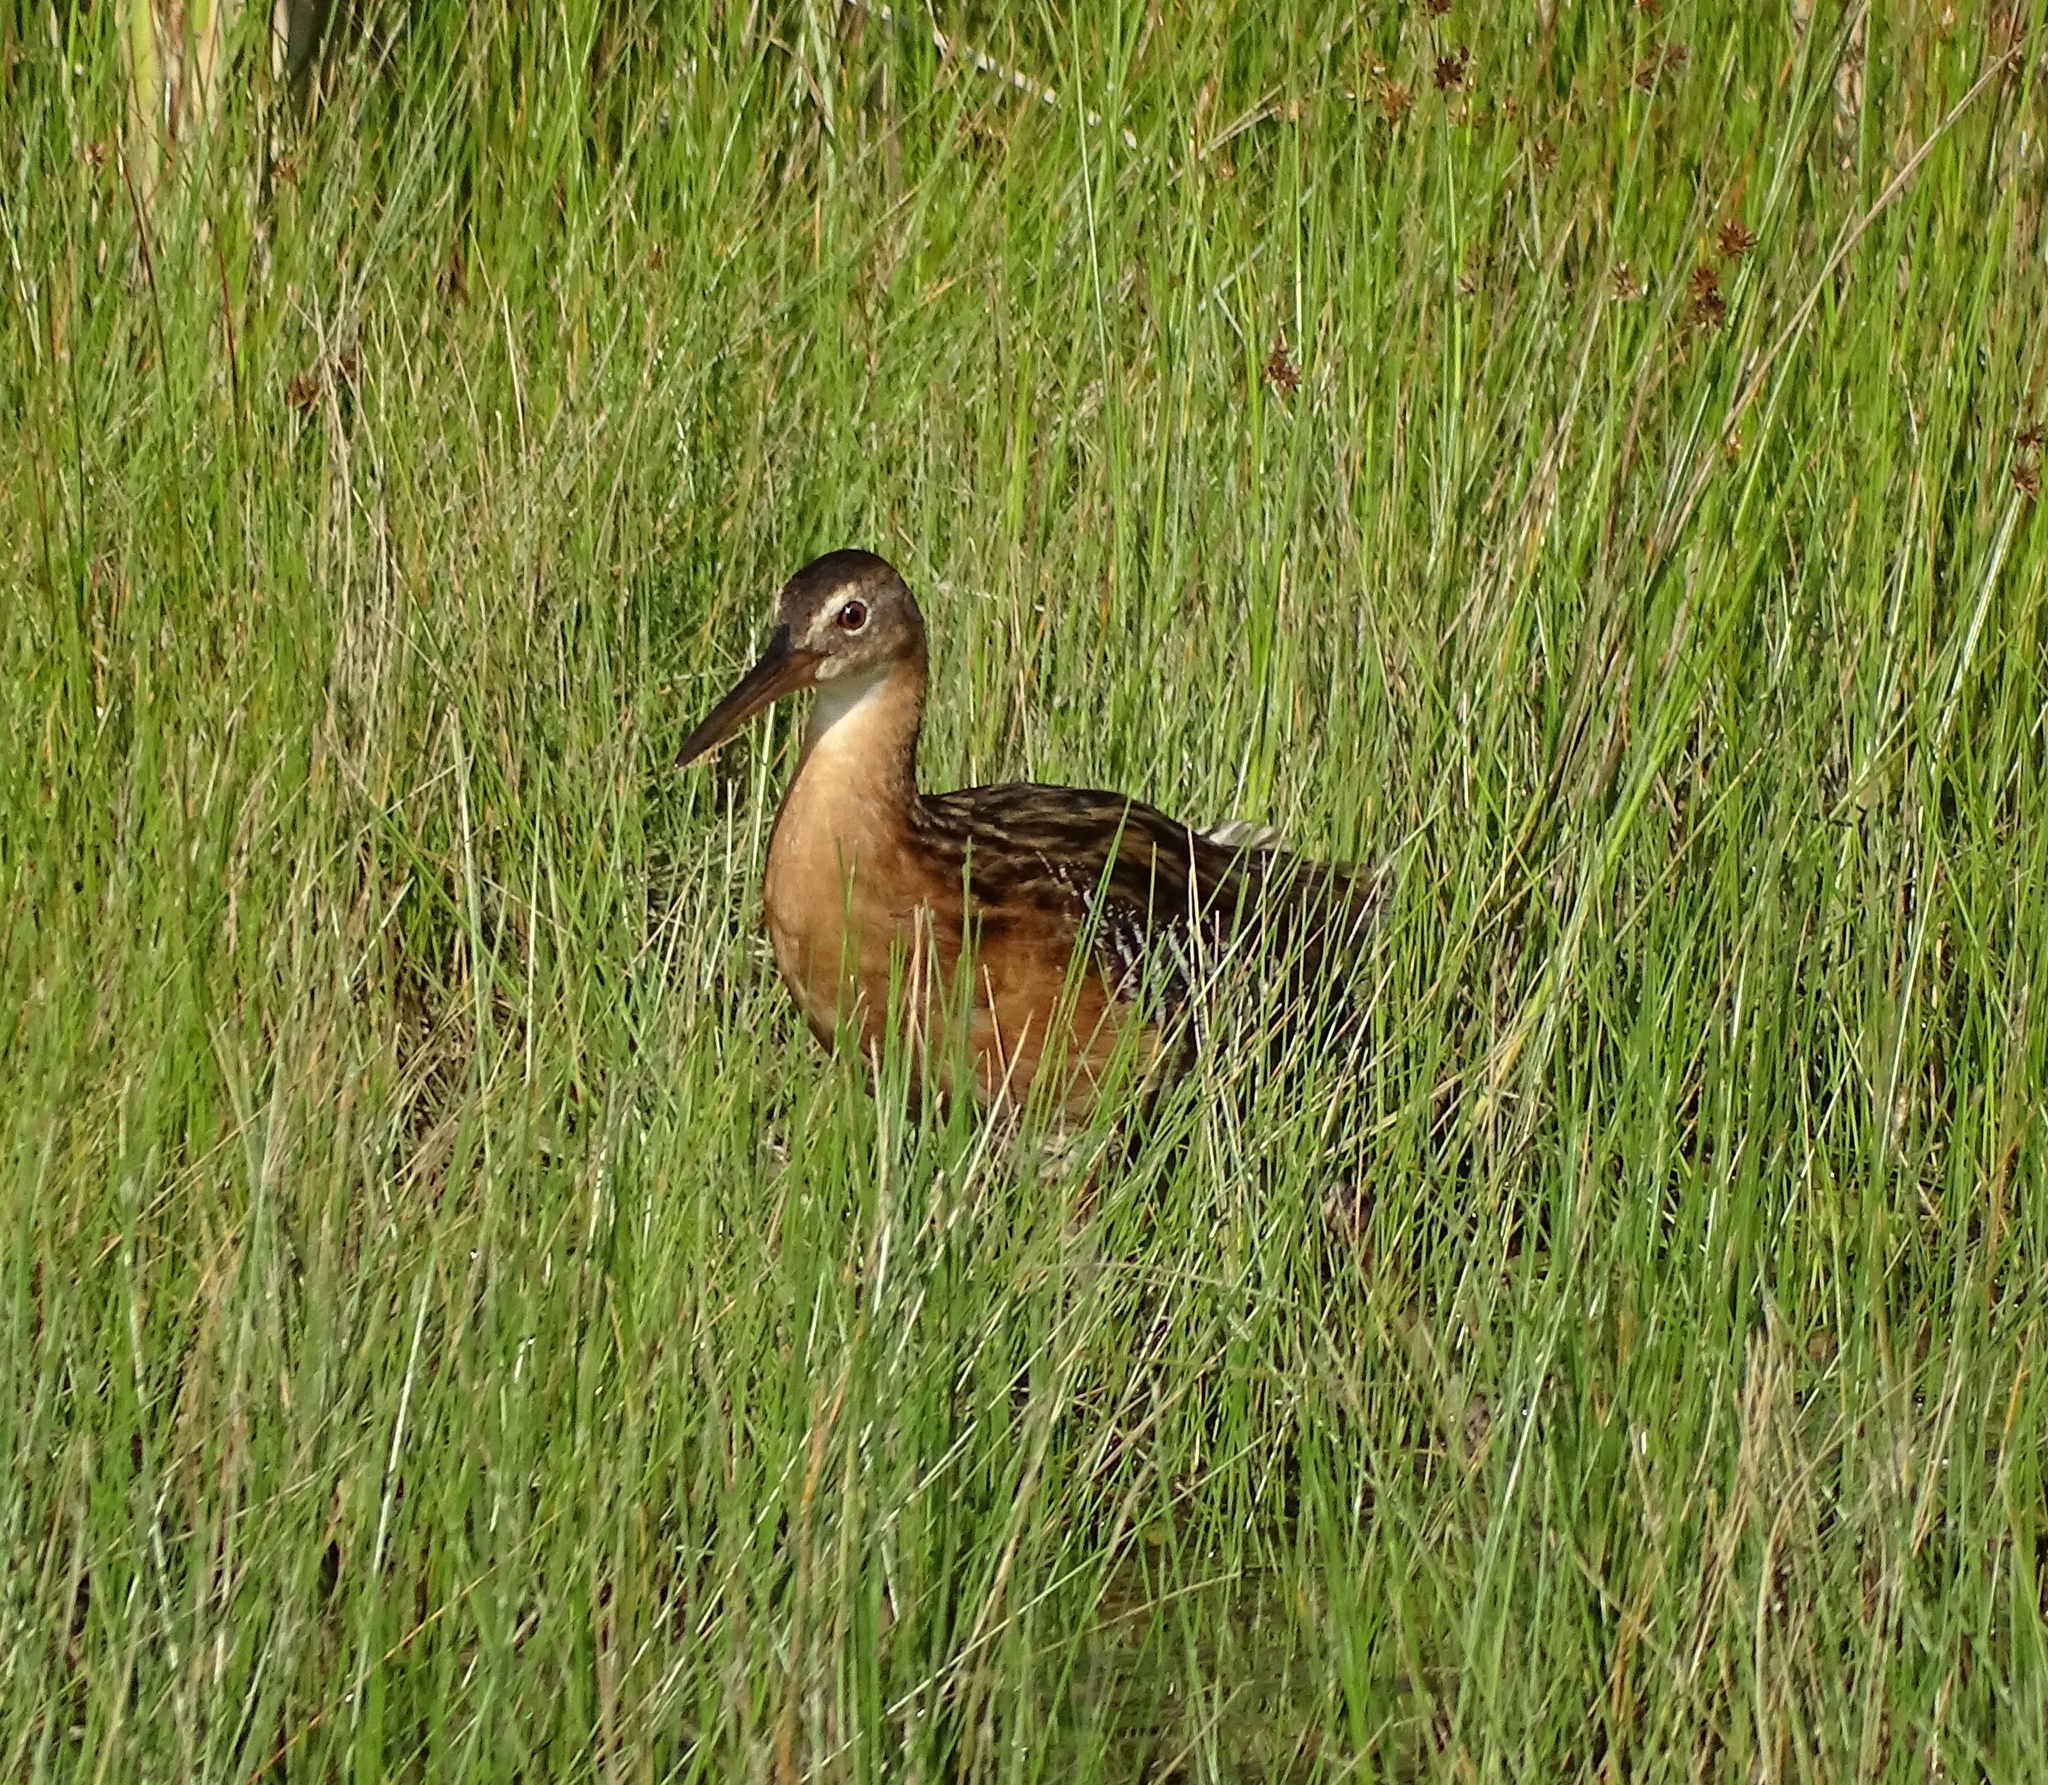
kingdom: Animalia
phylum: Chordata
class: Aves
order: Gruiformes
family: Rallidae
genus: Rallus
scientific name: Rallus elegans
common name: King rail
